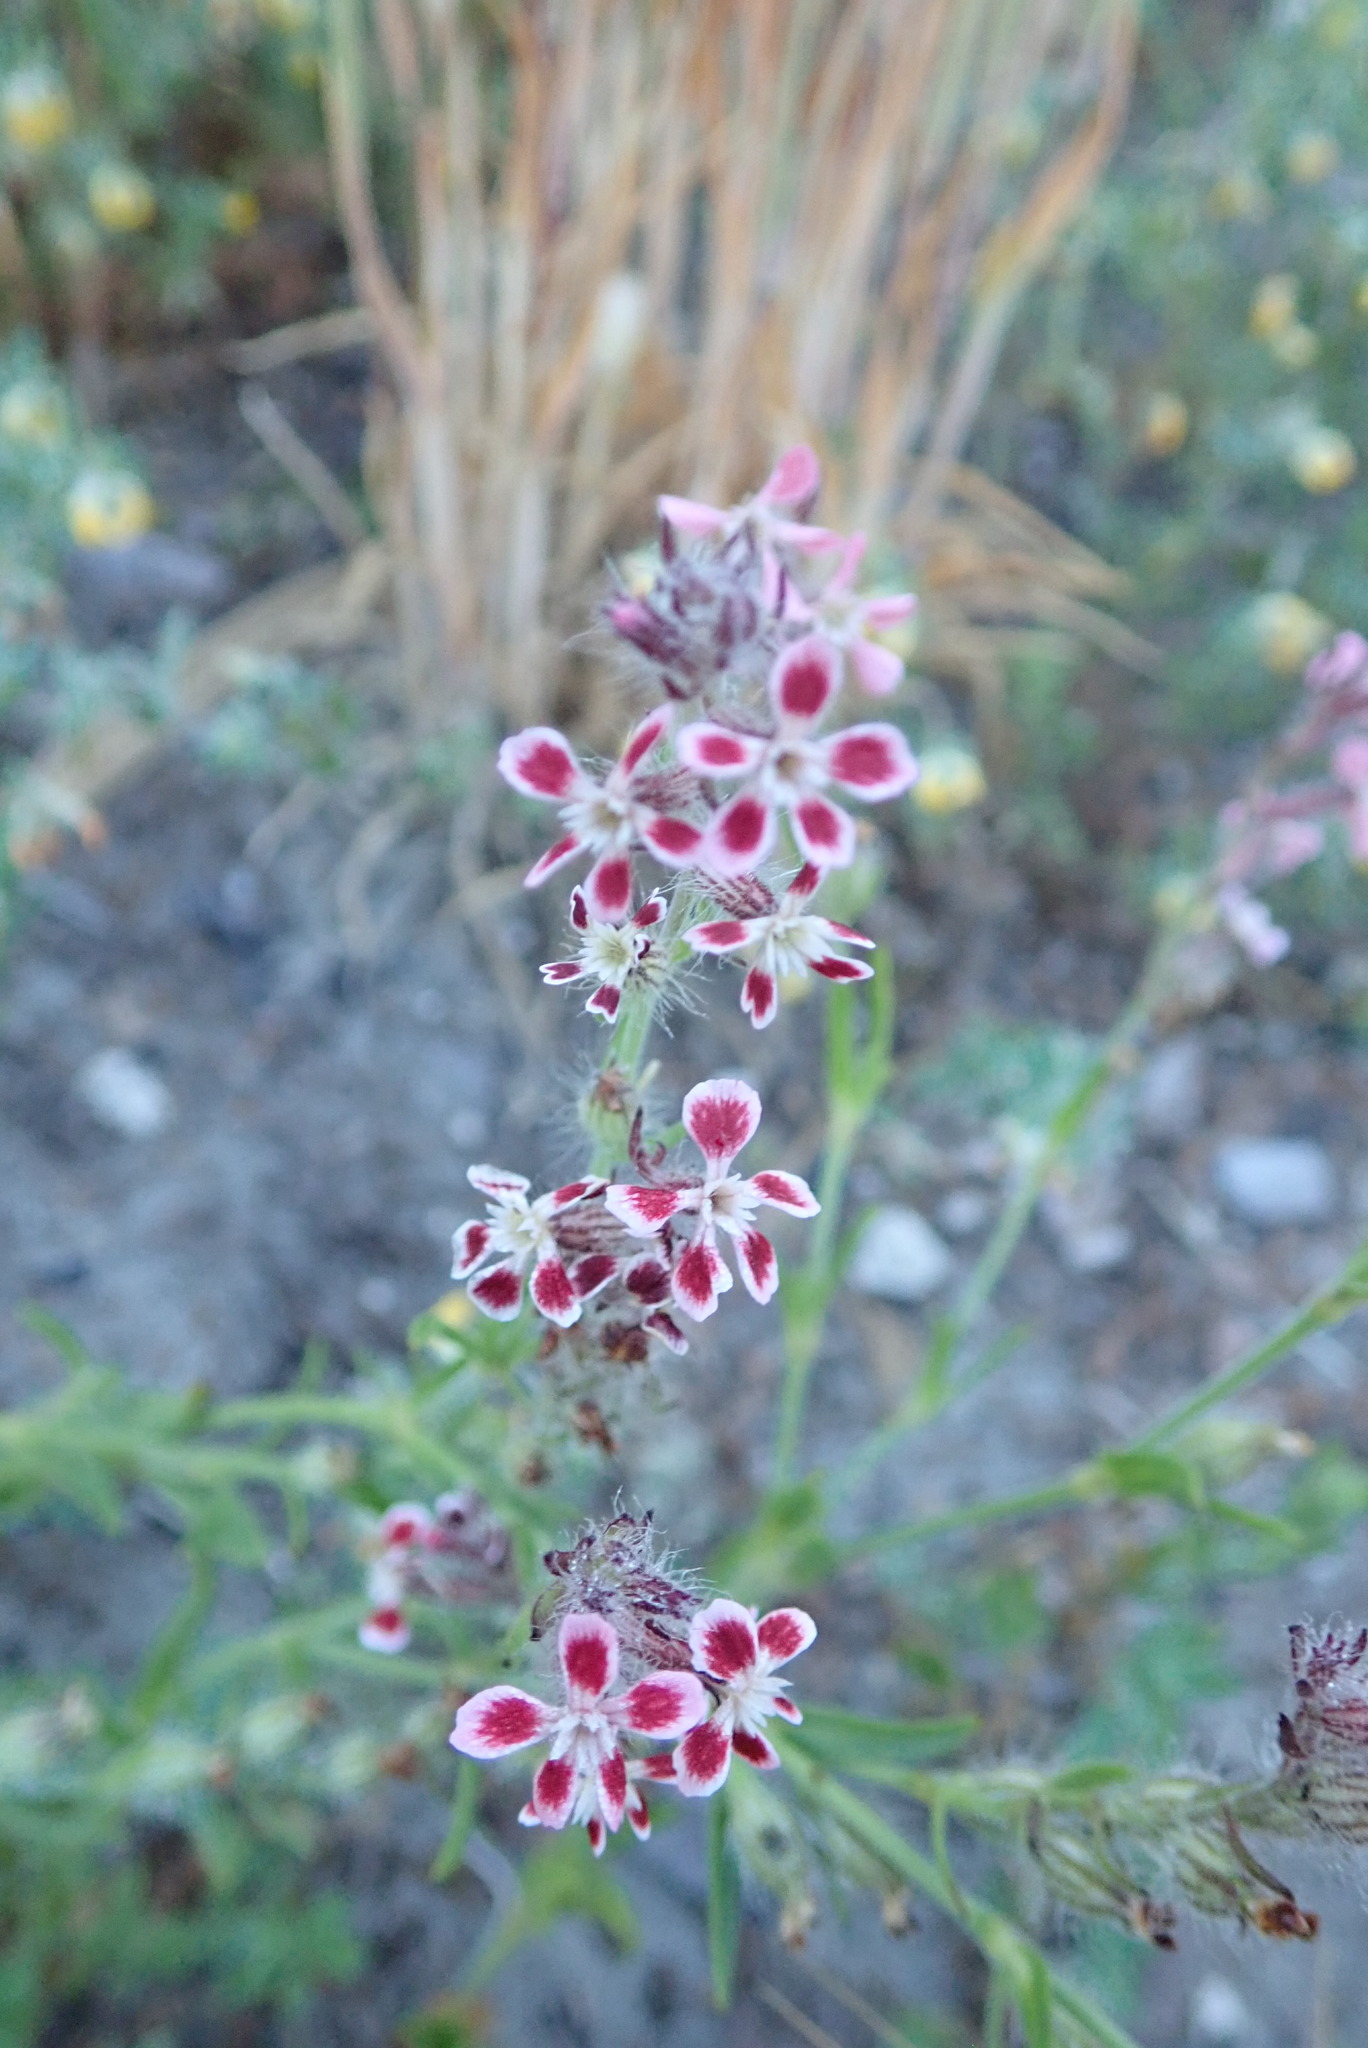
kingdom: Plantae
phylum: Tracheophyta
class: Magnoliopsida
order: Caryophyllales
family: Caryophyllaceae
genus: Silene
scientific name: Silene gallica
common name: Small-flowered catchfly
